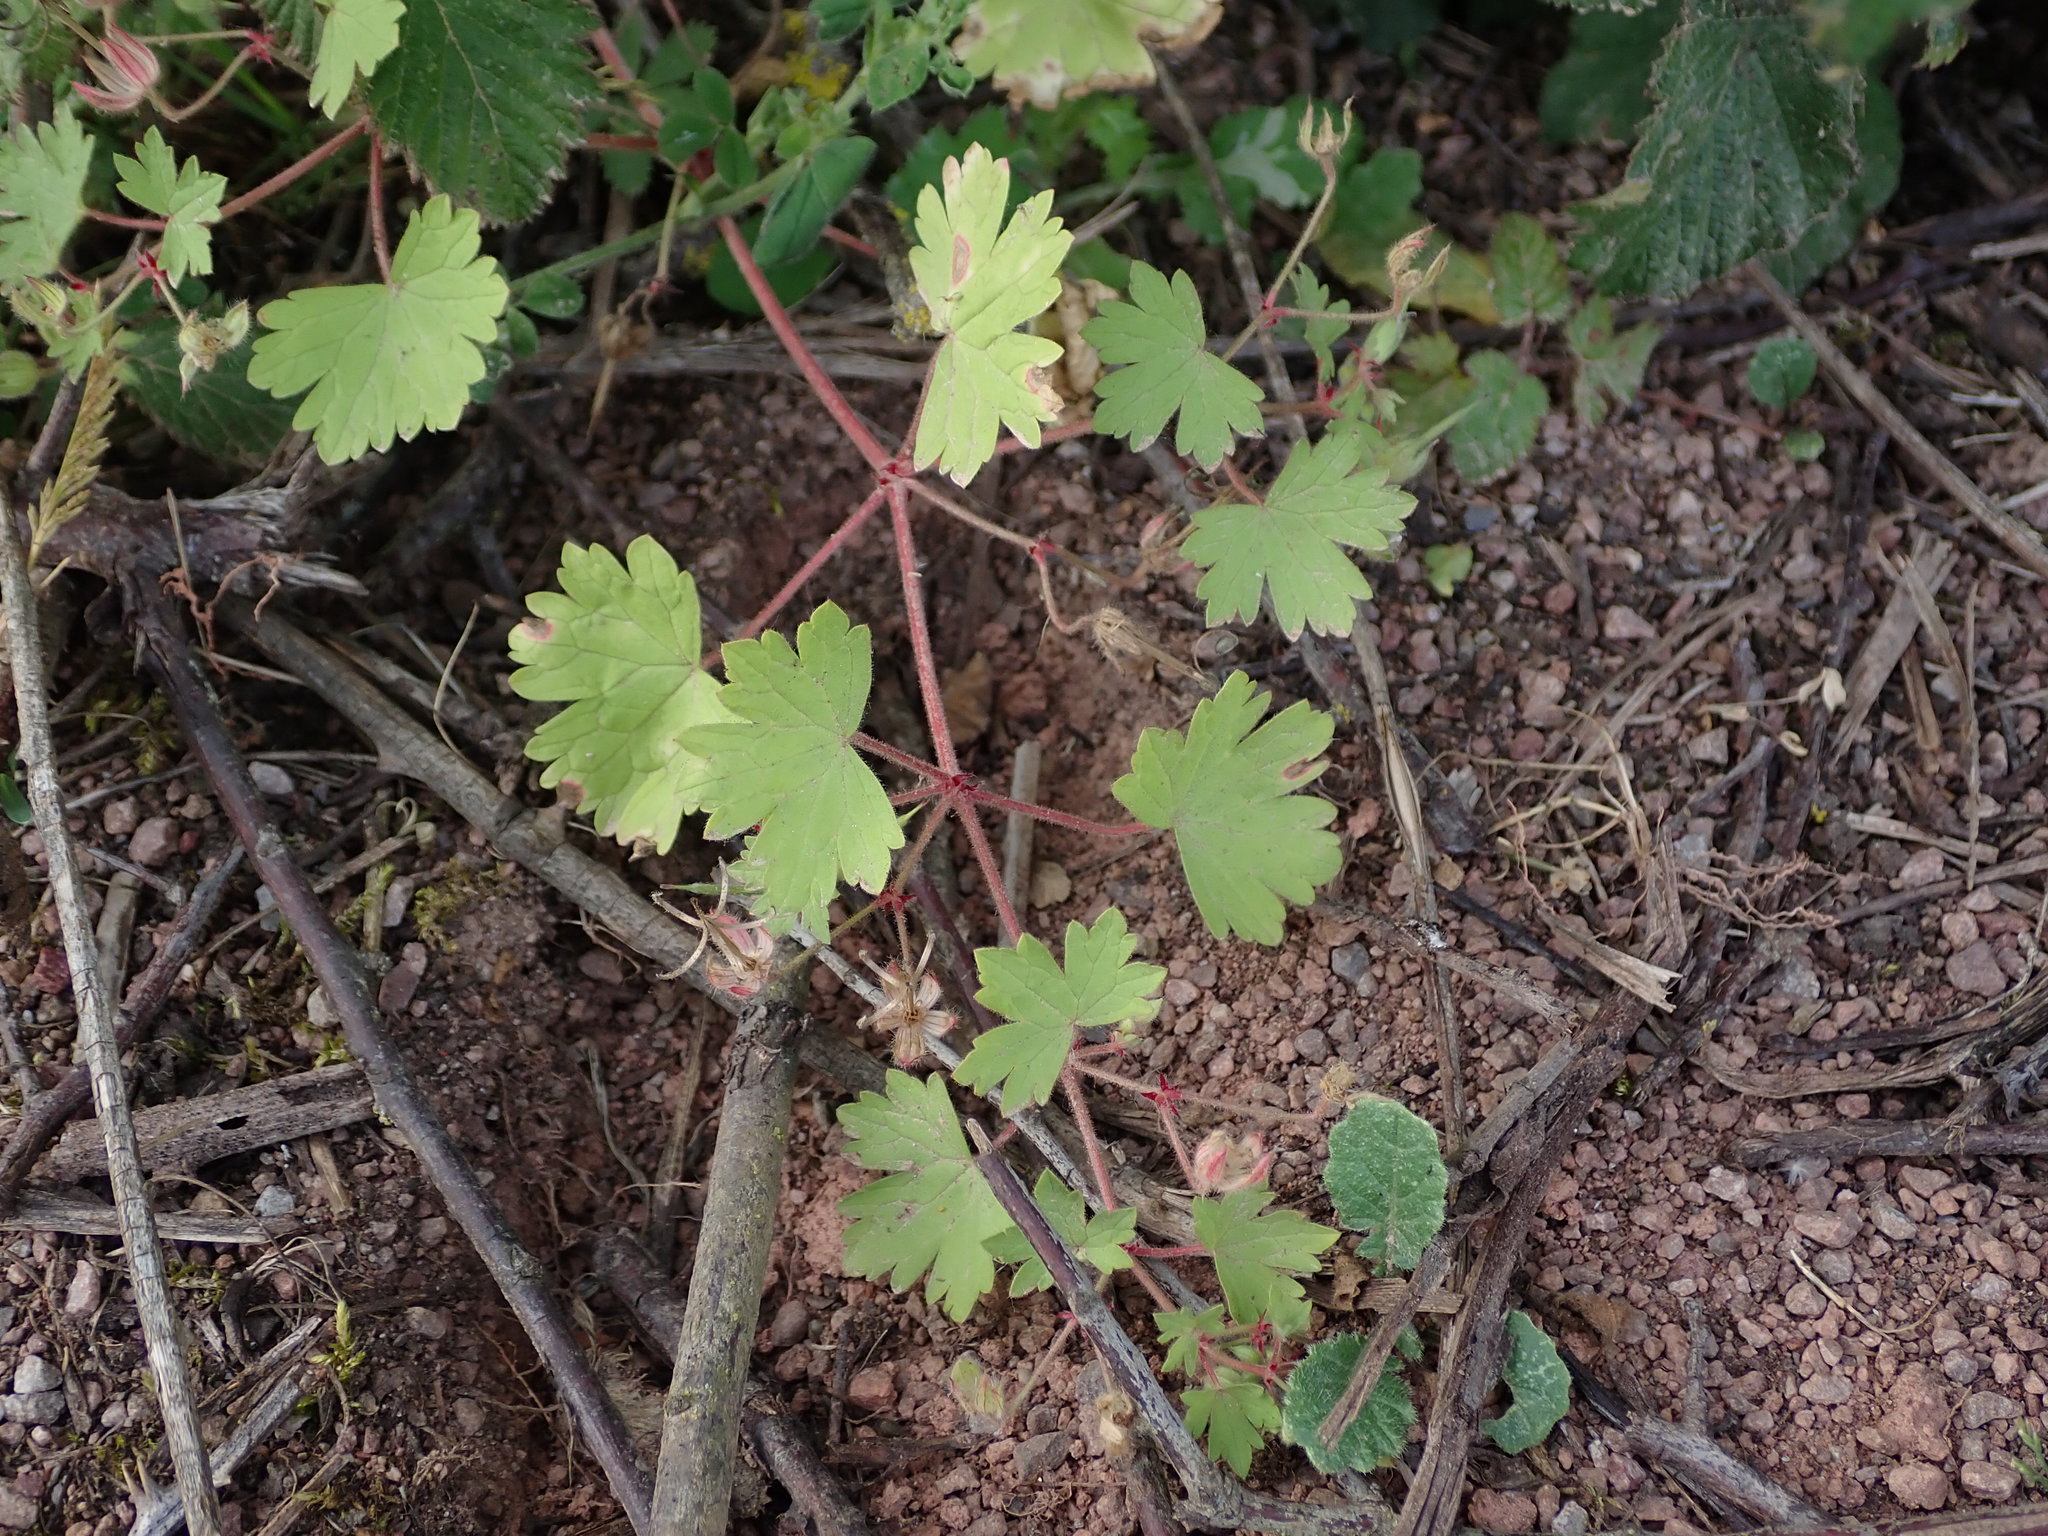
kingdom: Plantae
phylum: Tracheophyta
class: Magnoliopsida
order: Geraniales
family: Geraniaceae
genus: Geranium
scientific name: Geranium rotundifolium
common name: Round-leaved crane's-bill
